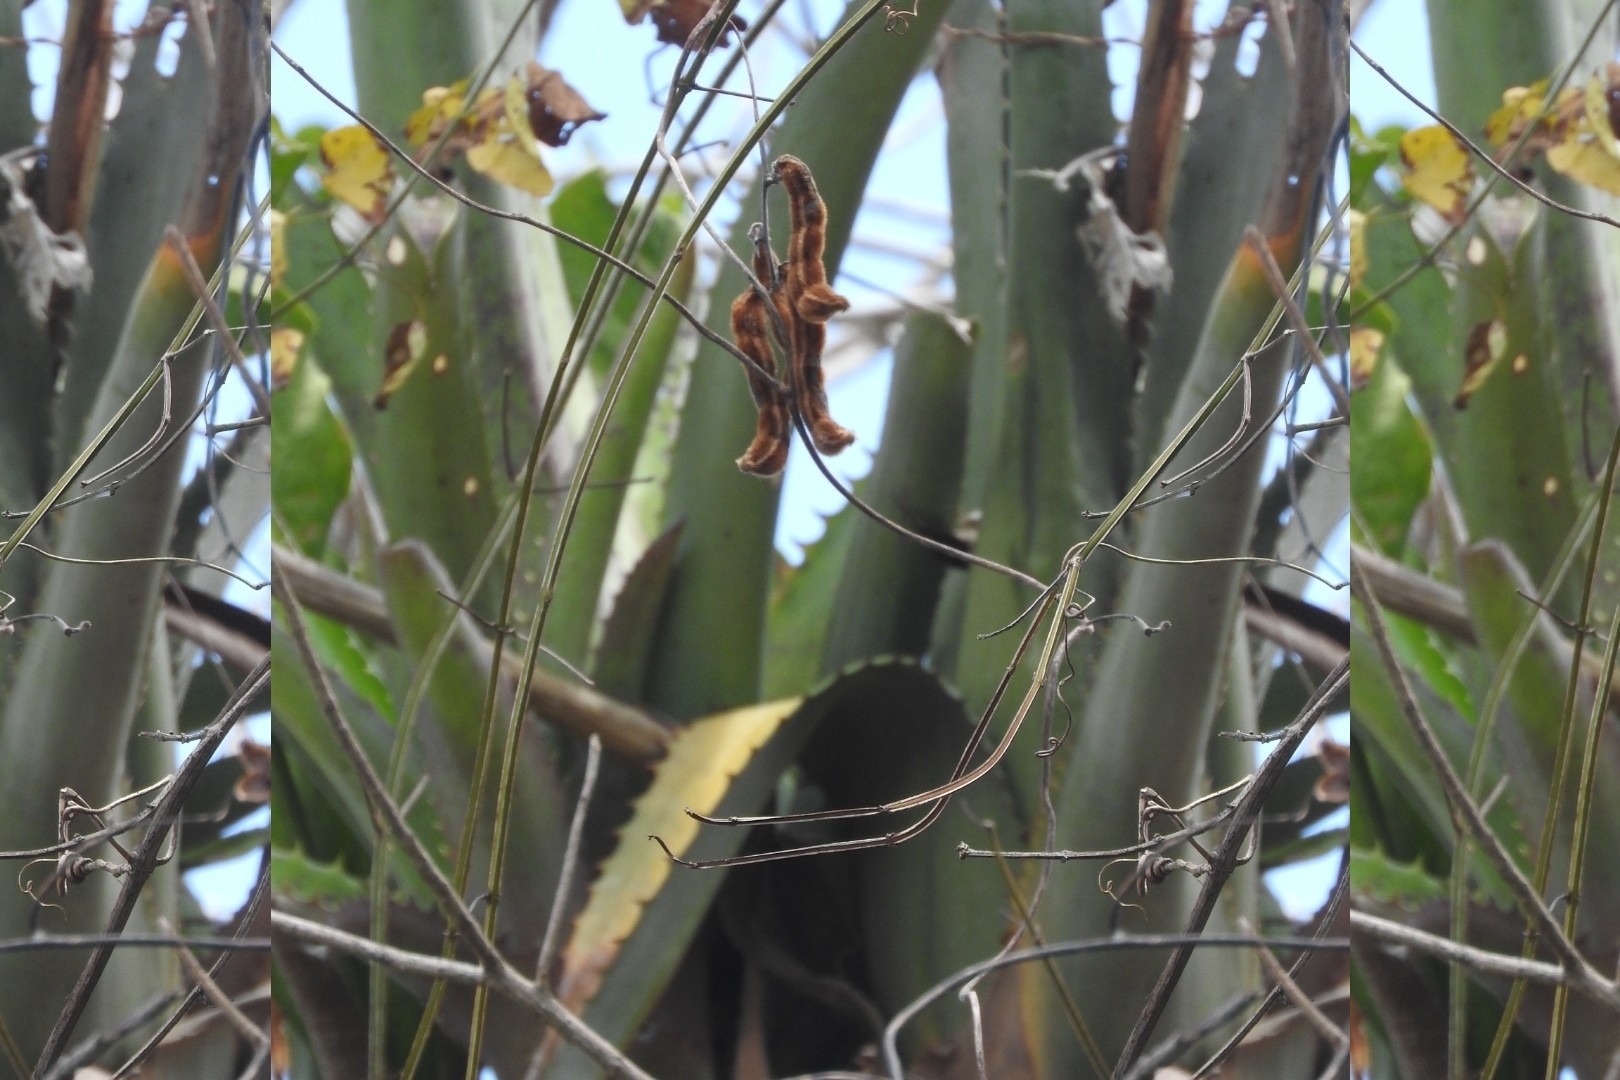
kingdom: Plantae
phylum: Tracheophyta
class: Liliopsida
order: Poales
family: Bromeliaceae
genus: Aechmea
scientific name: Aechmea bracteata
